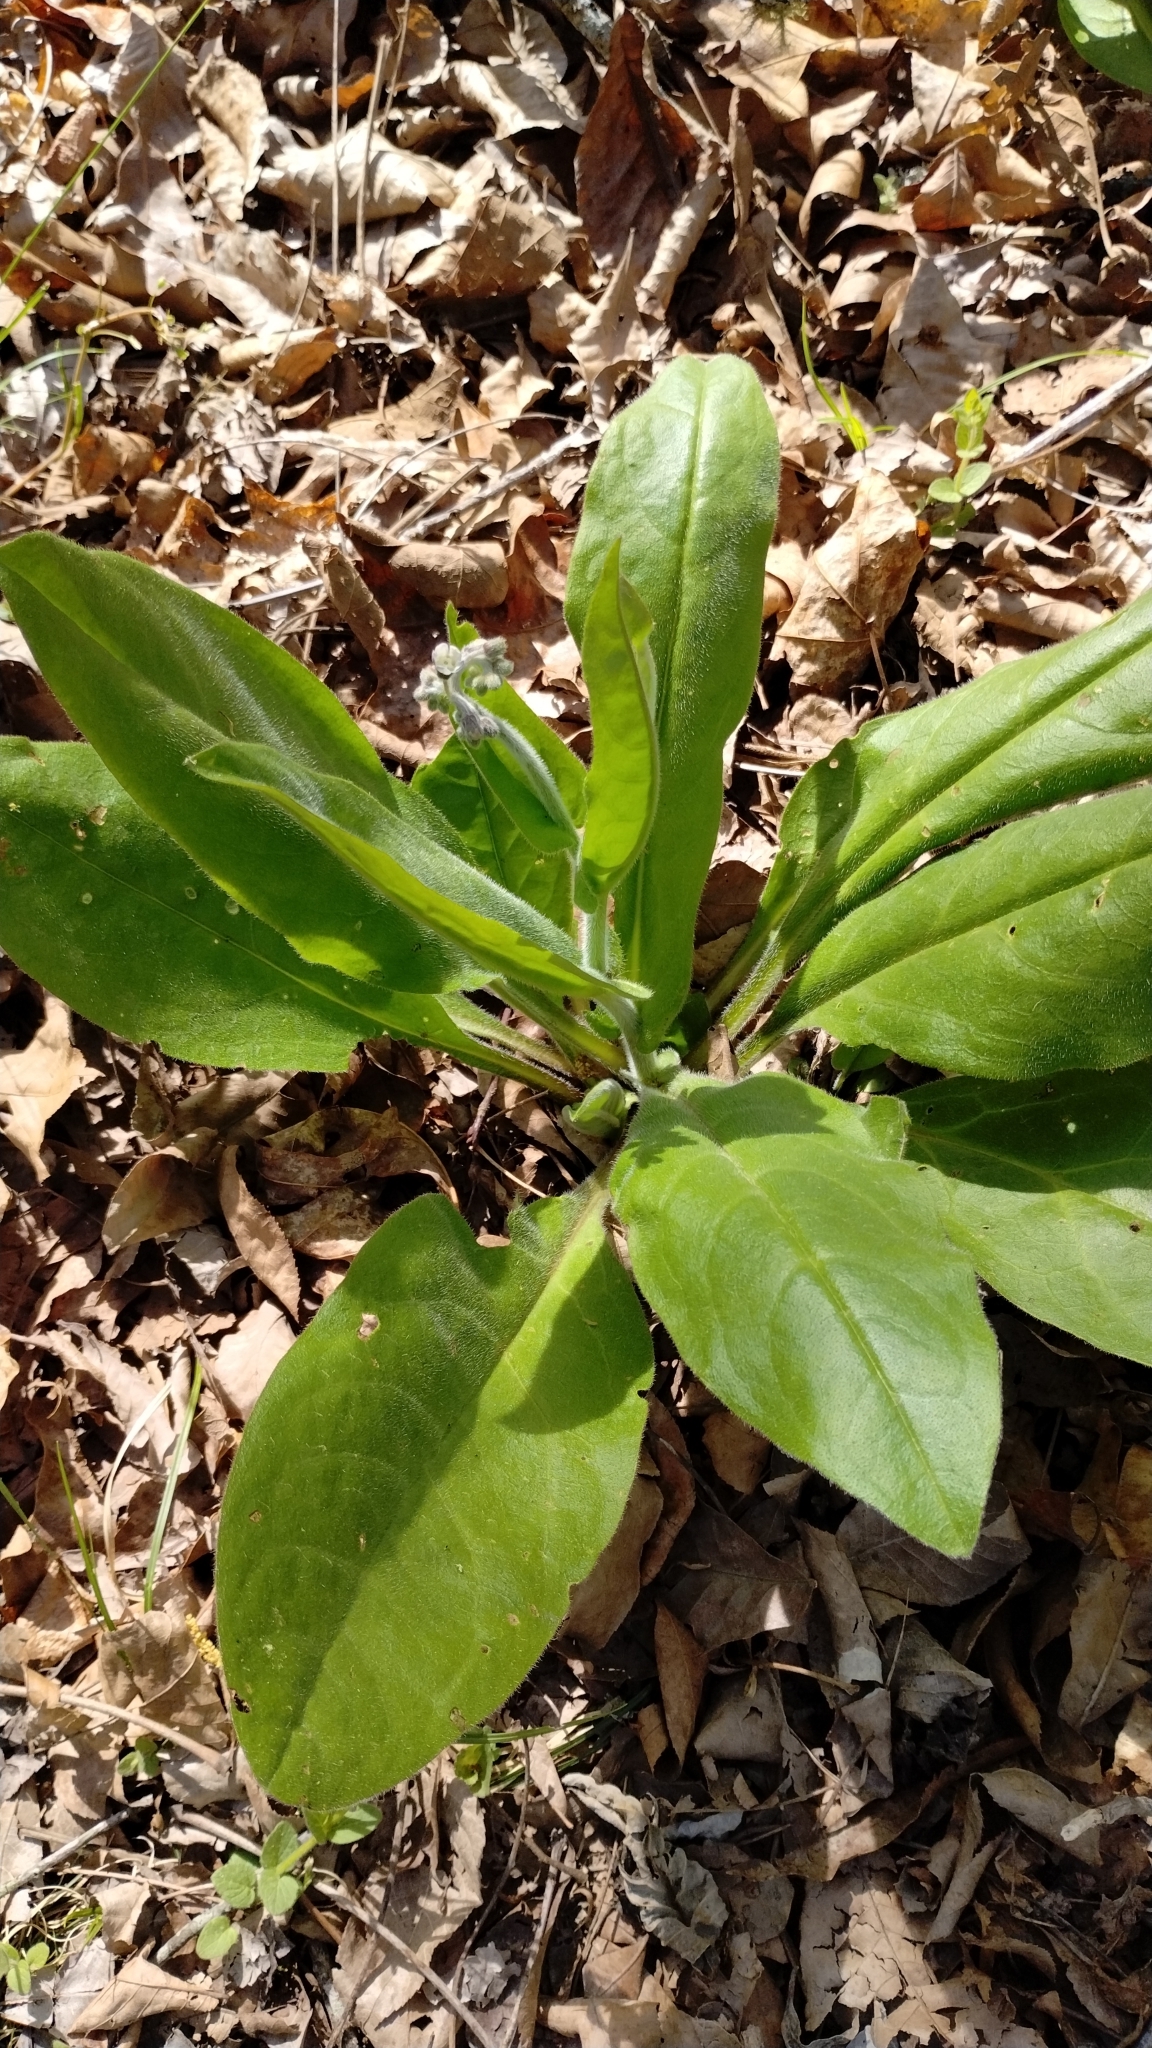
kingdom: Plantae
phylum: Tracheophyta
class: Magnoliopsida
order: Boraginales
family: Boraginaceae
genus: Andersonglossum
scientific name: Andersonglossum virginianum
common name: Wild comfrey
